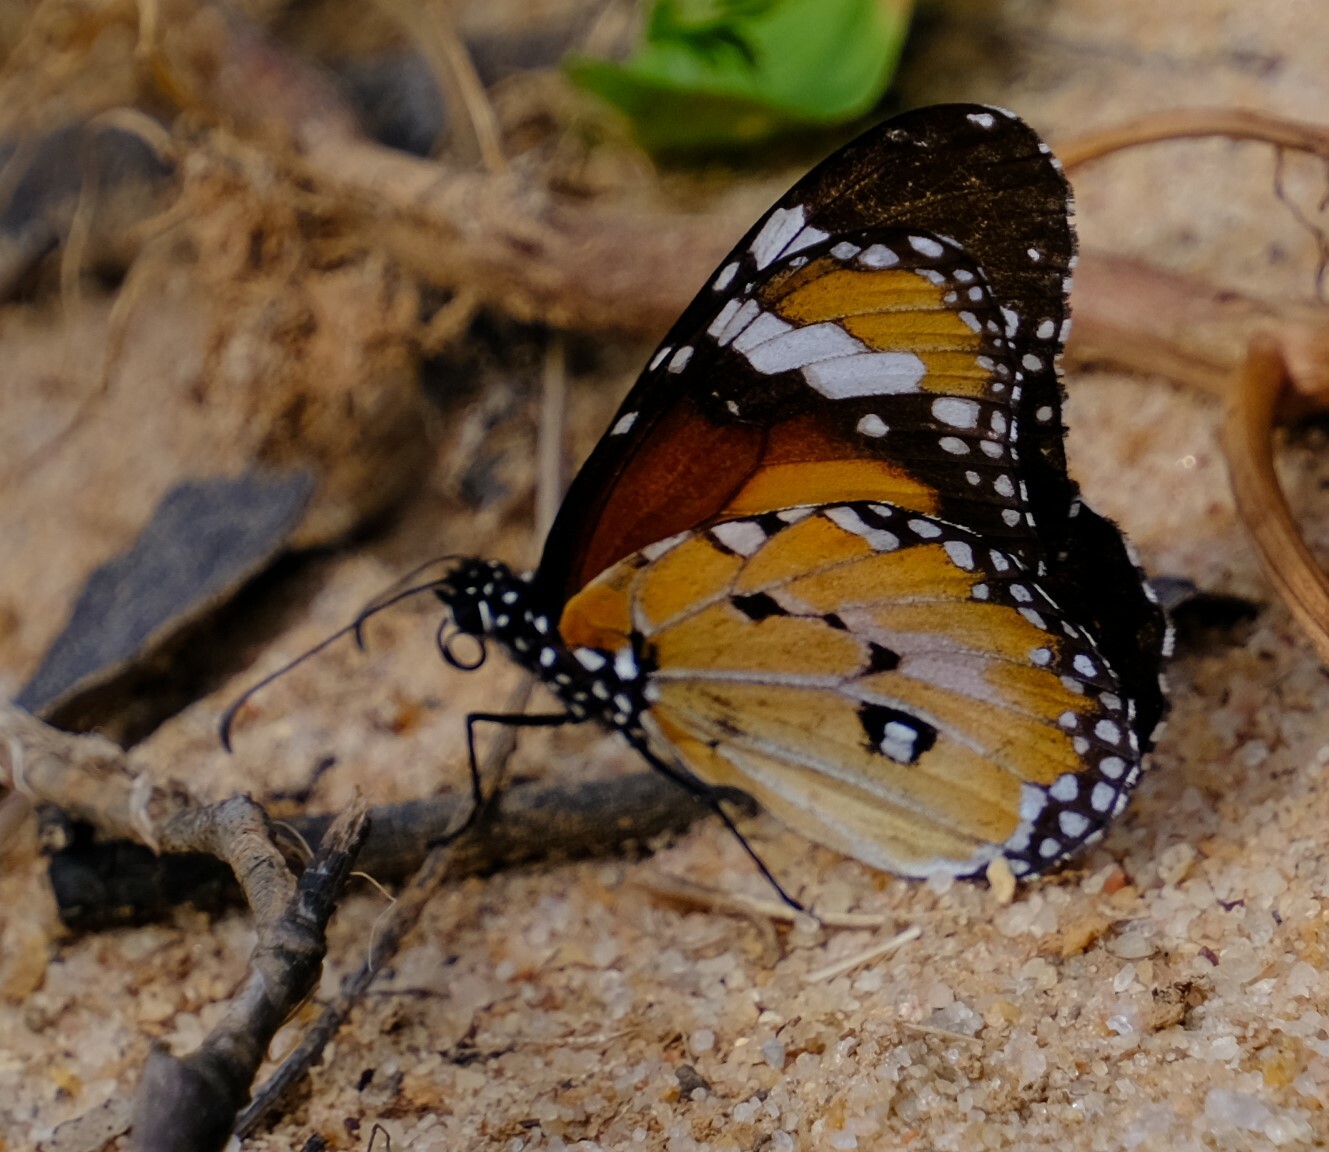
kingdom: Animalia
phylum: Arthropoda
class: Insecta
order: Lepidoptera
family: Nymphalidae
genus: Danaus
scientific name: Danaus chrysippus
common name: Plain tiger
